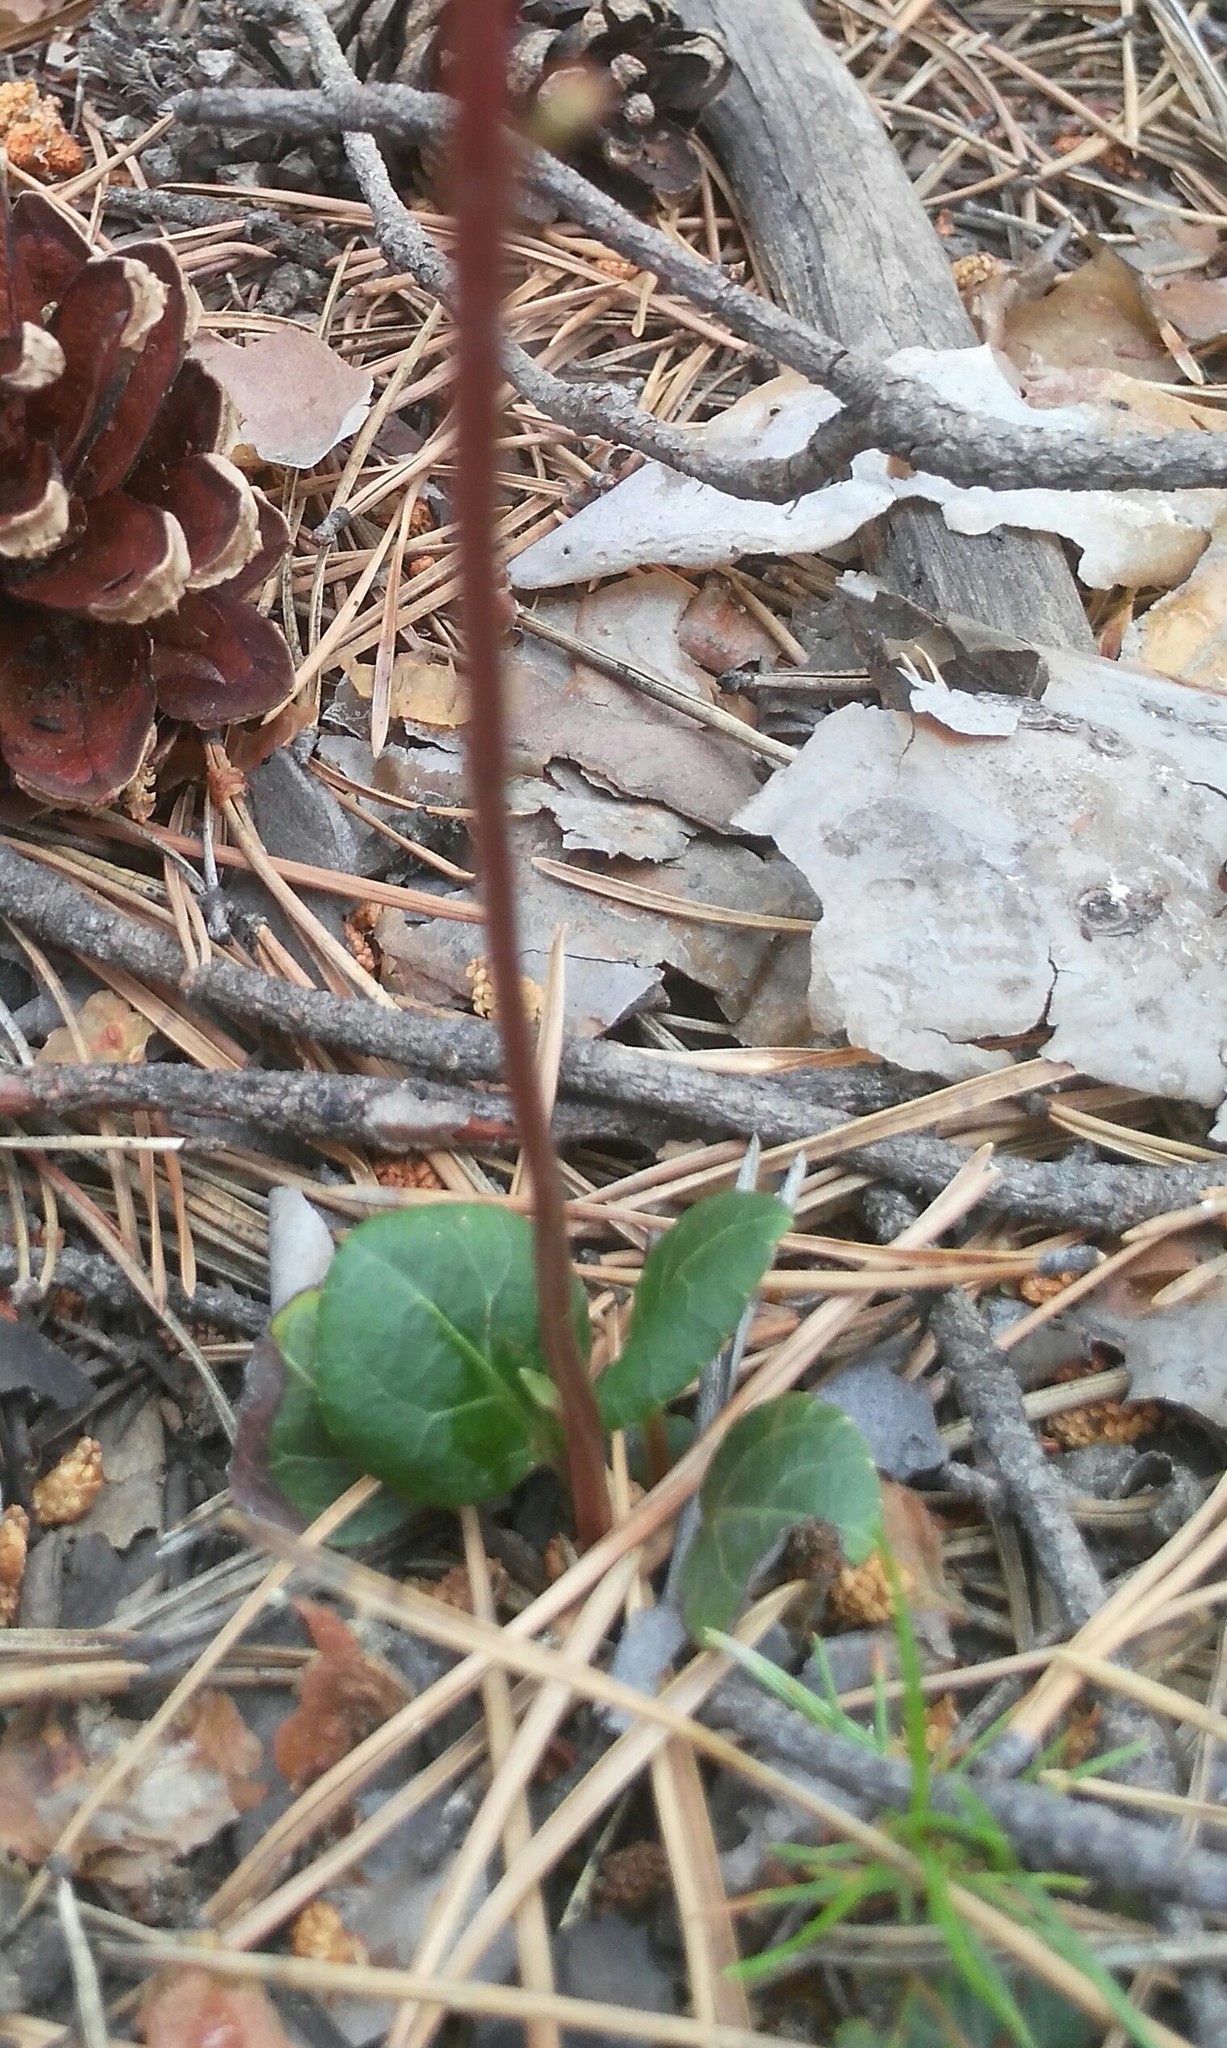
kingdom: Plantae
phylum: Tracheophyta
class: Magnoliopsida
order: Ericales
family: Ericaceae
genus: Pyrola
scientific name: Pyrola chlorantha
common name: Green wintergreen
